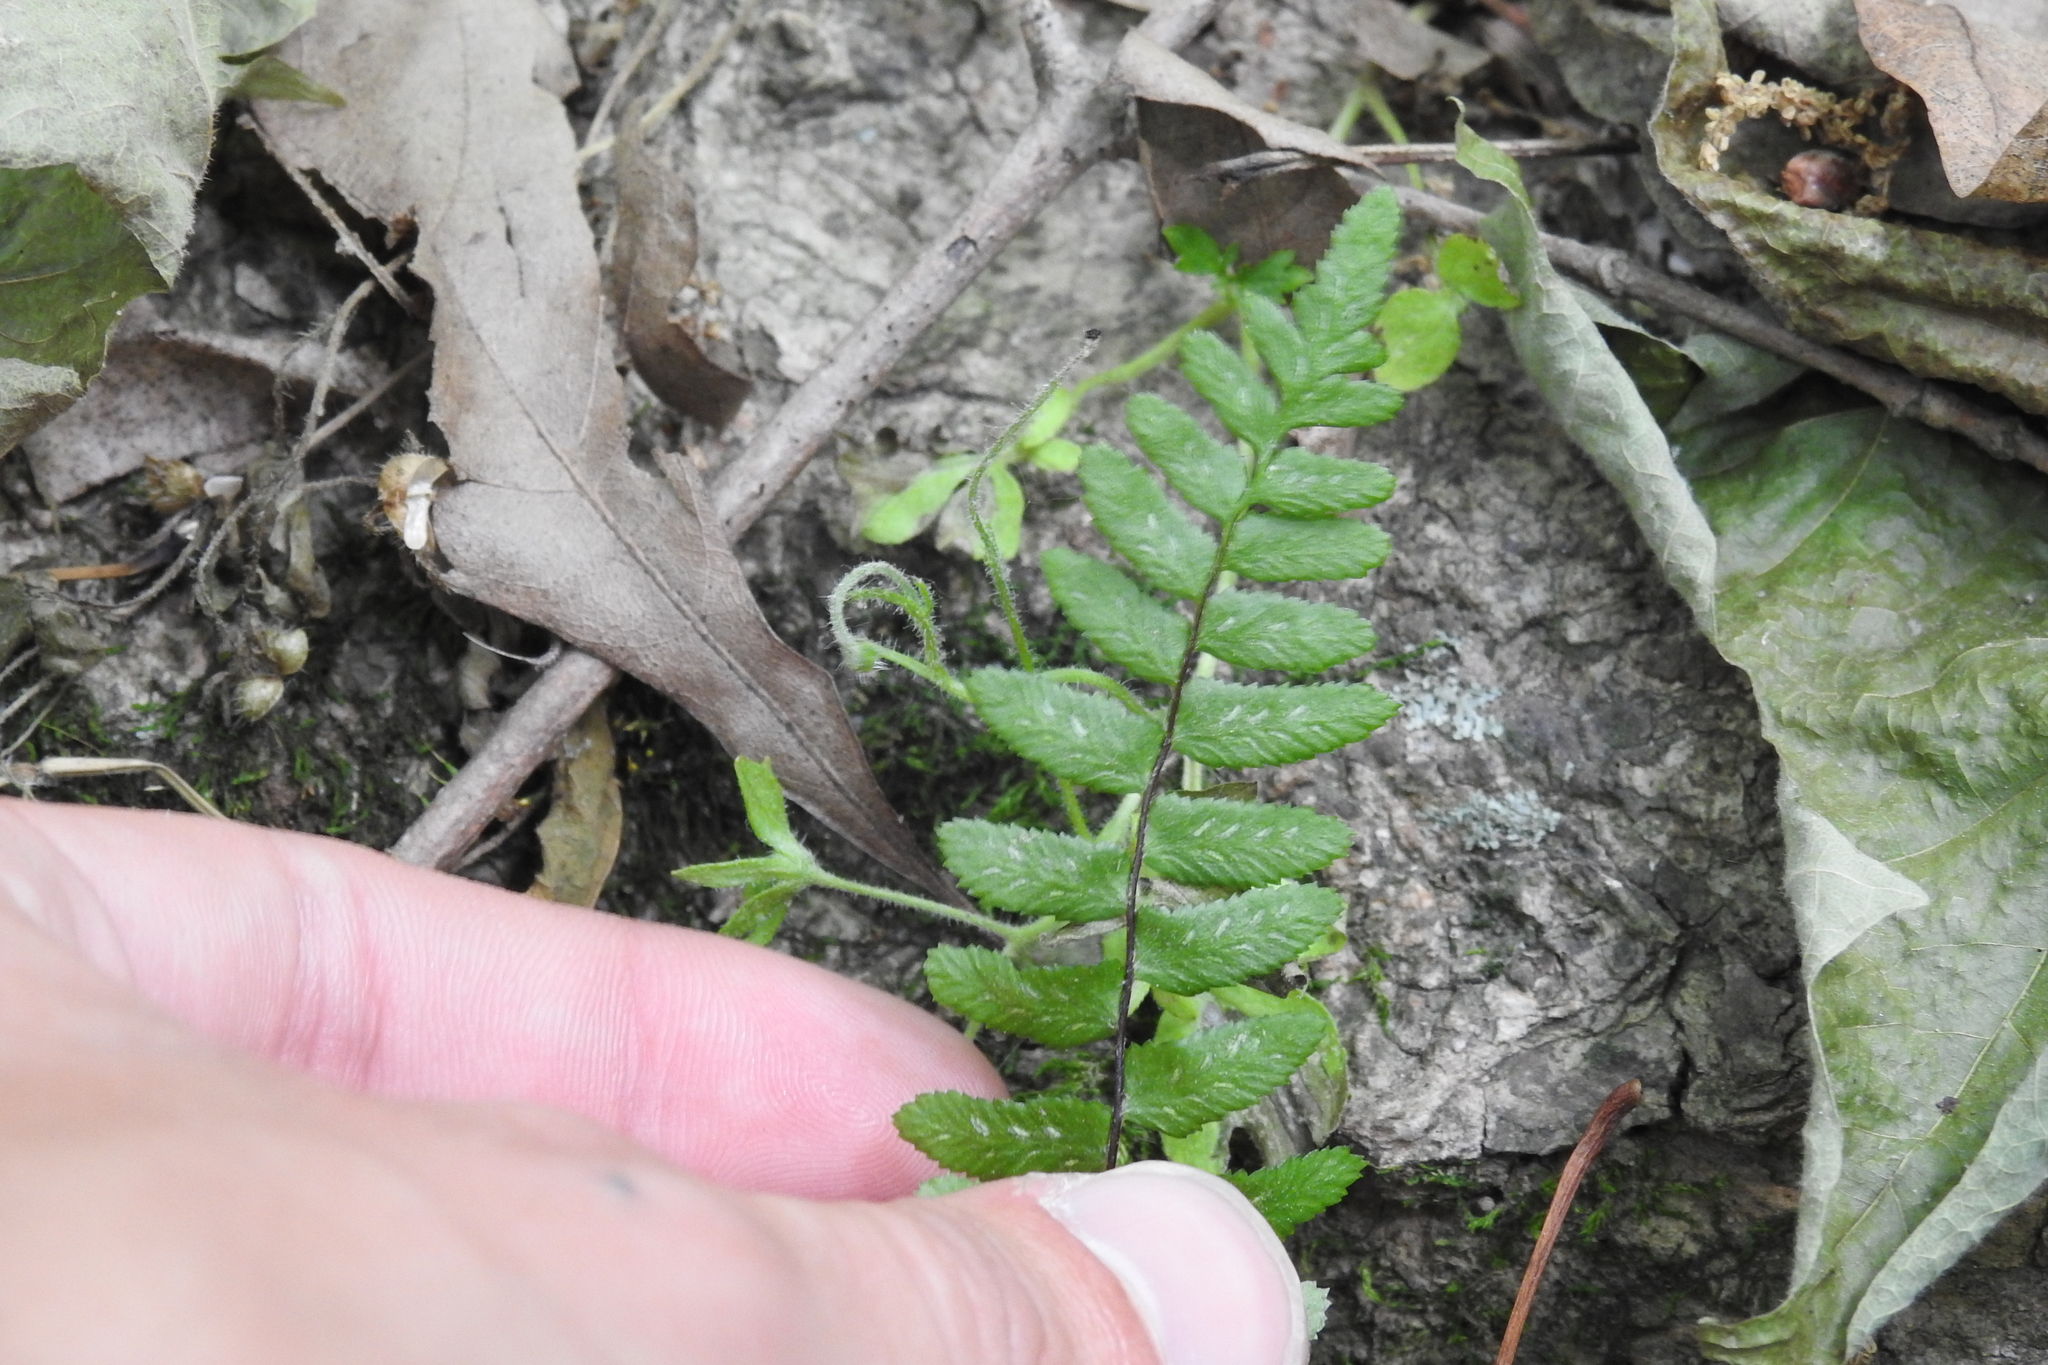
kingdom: Plantae
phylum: Tracheophyta
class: Polypodiopsida
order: Polypodiales
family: Aspleniaceae
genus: Asplenium
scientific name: Asplenium platyneuron
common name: Ebony spleenwort
